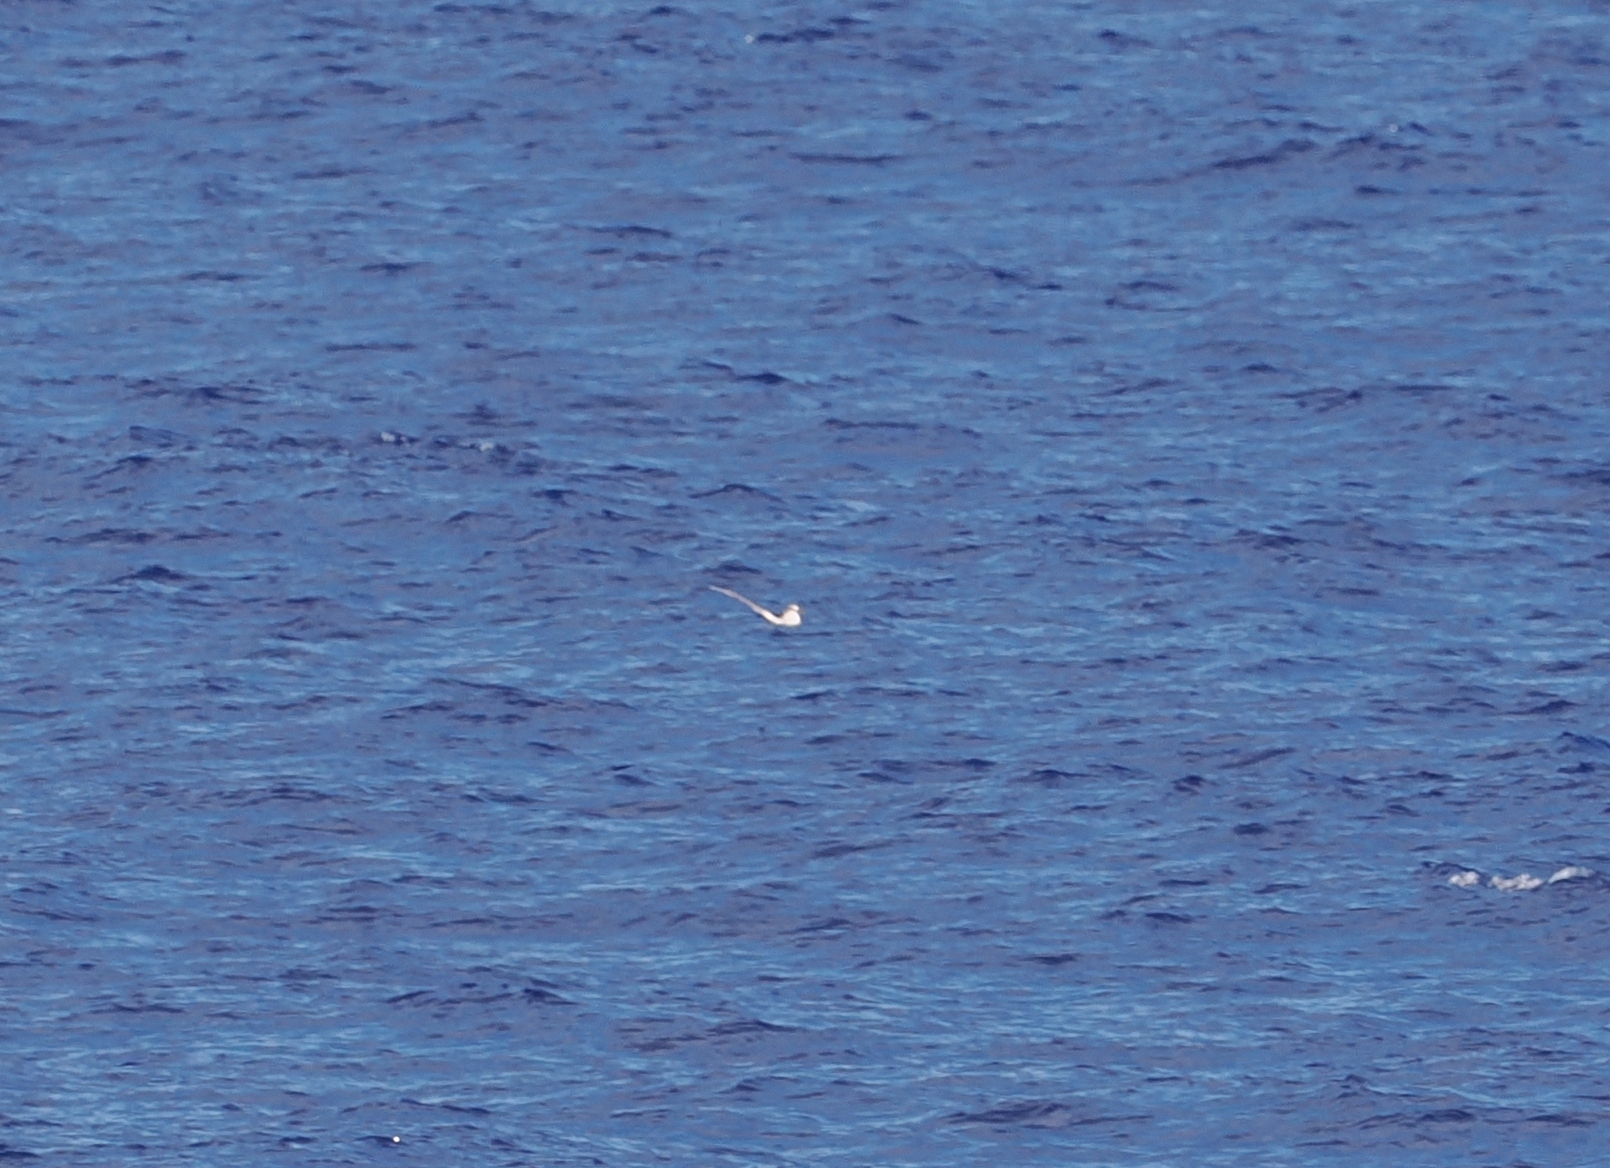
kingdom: Animalia
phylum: Chordata
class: Aves
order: Phaethontiformes
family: Phaethontidae
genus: Phaethon
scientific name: Phaethon lepturus
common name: White-tailed tropicbird
